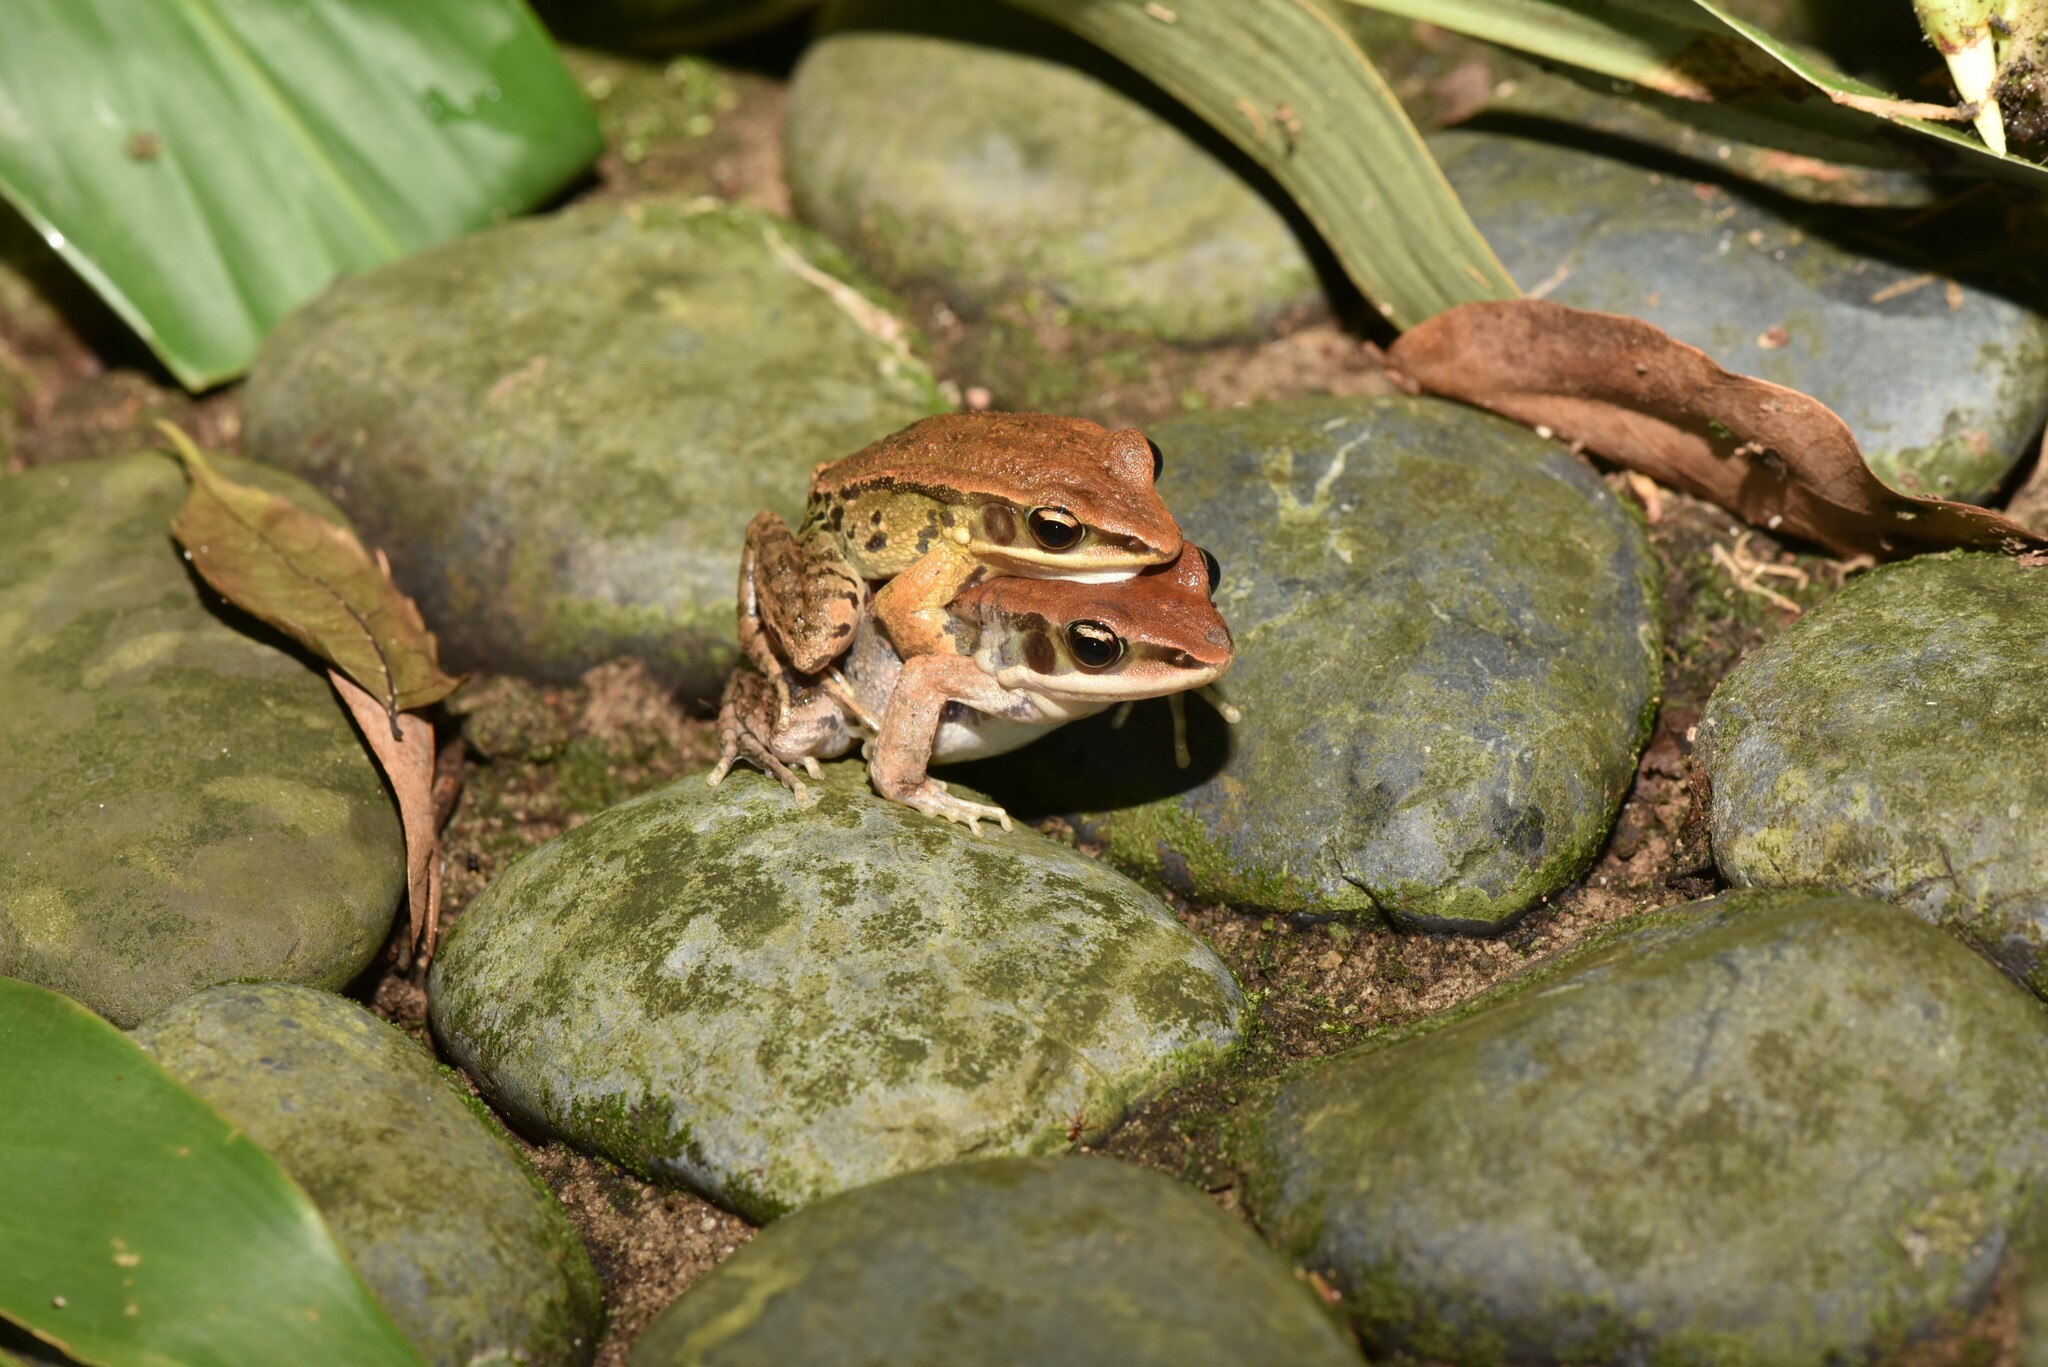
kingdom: Animalia
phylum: Chordata
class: Amphibia
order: Anura
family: Ranidae
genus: Hylarana
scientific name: Hylarana latouchii
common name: Broad-folded frog
